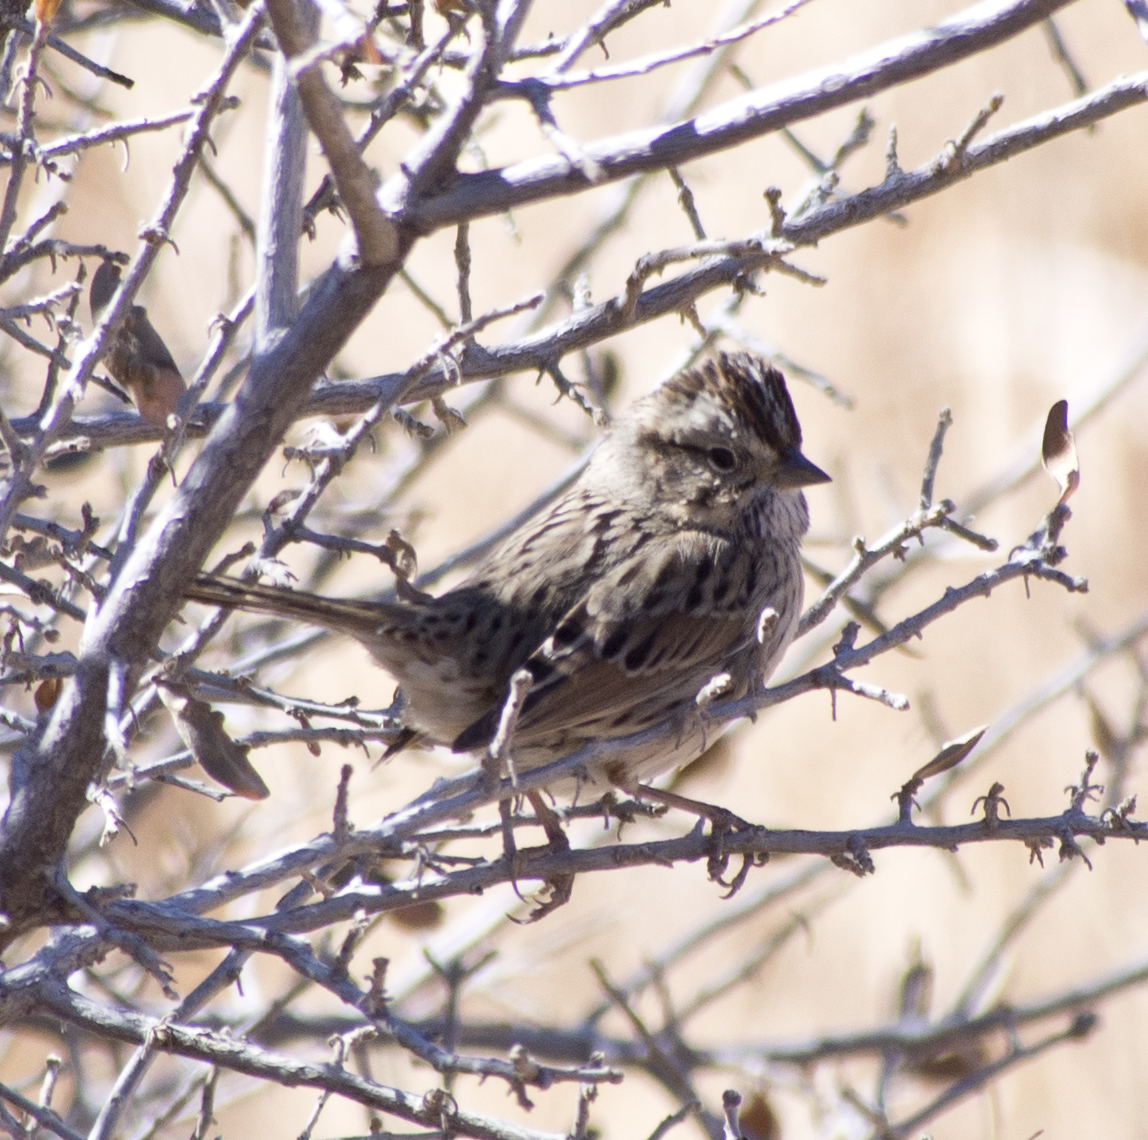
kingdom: Animalia
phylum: Chordata
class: Aves
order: Passeriformes
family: Passerellidae
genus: Melospiza
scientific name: Melospiza lincolnii
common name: Lincoln's sparrow
